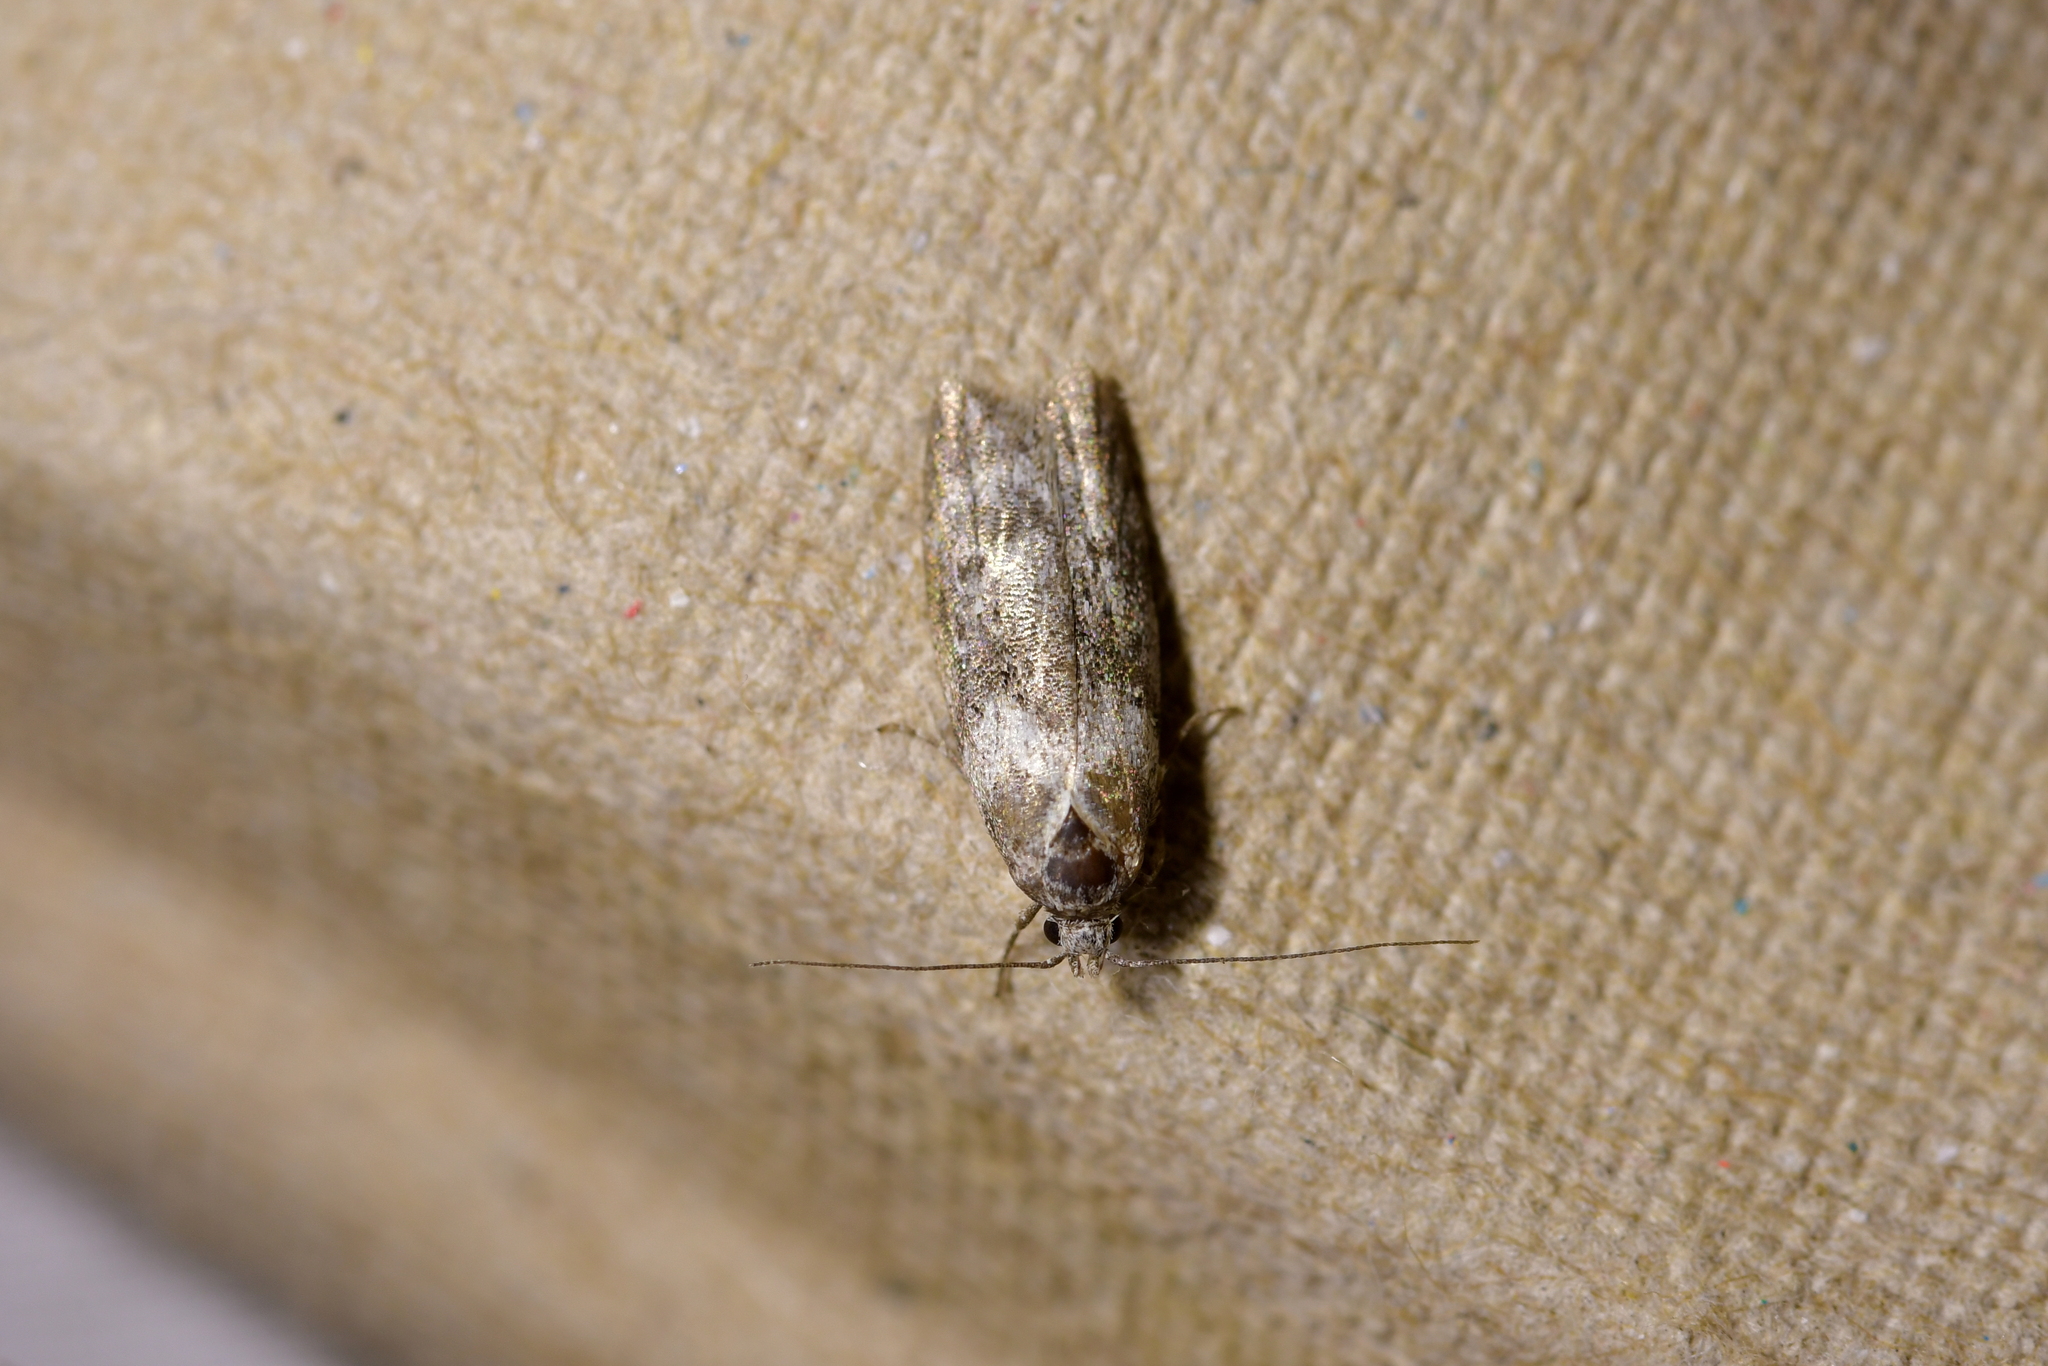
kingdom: Animalia
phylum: Arthropoda
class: Insecta
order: Lepidoptera
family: Oecophoridae
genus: Izatha
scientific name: Izatha convulsella
